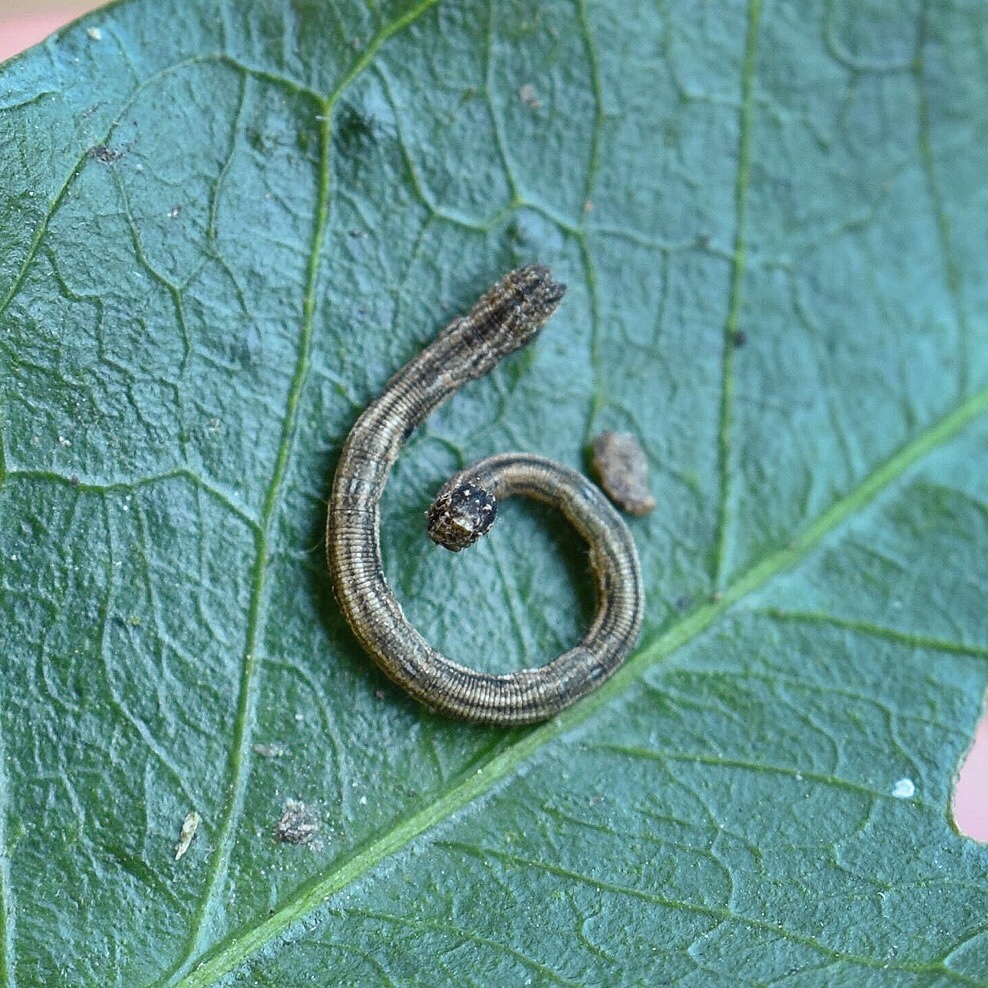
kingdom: Animalia
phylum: Arthropoda
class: Insecta
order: Lepidoptera
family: Geometridae
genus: Scopula
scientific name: Scopula internata
